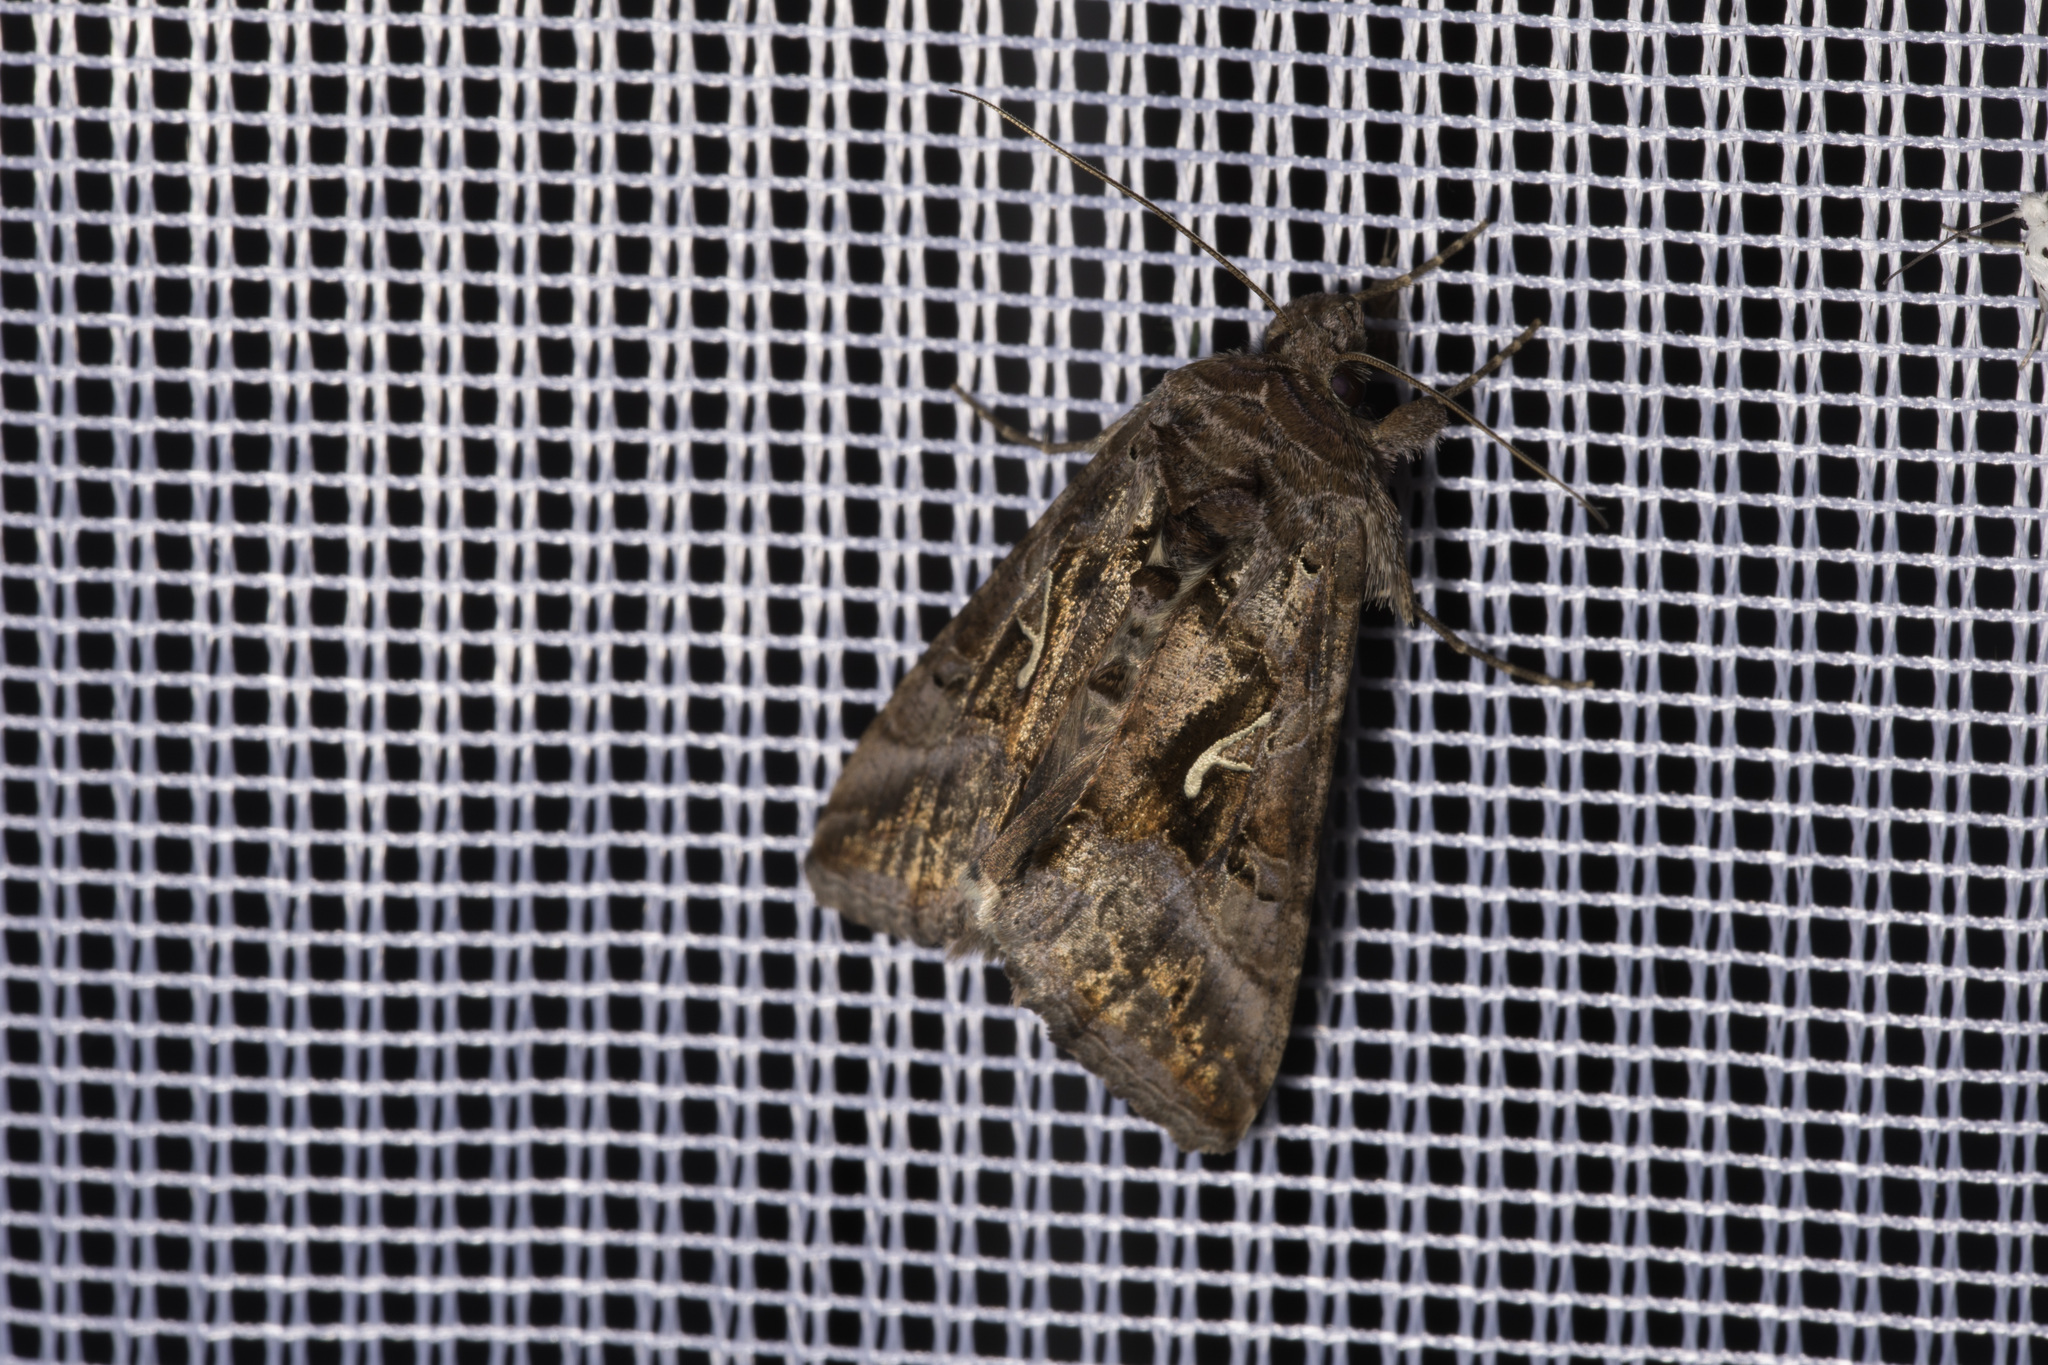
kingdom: Animalia
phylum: Arthropoda
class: Insecta
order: Lepidoptera
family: Noctuidae
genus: Autographa
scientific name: Autographa gamma
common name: Silver y
